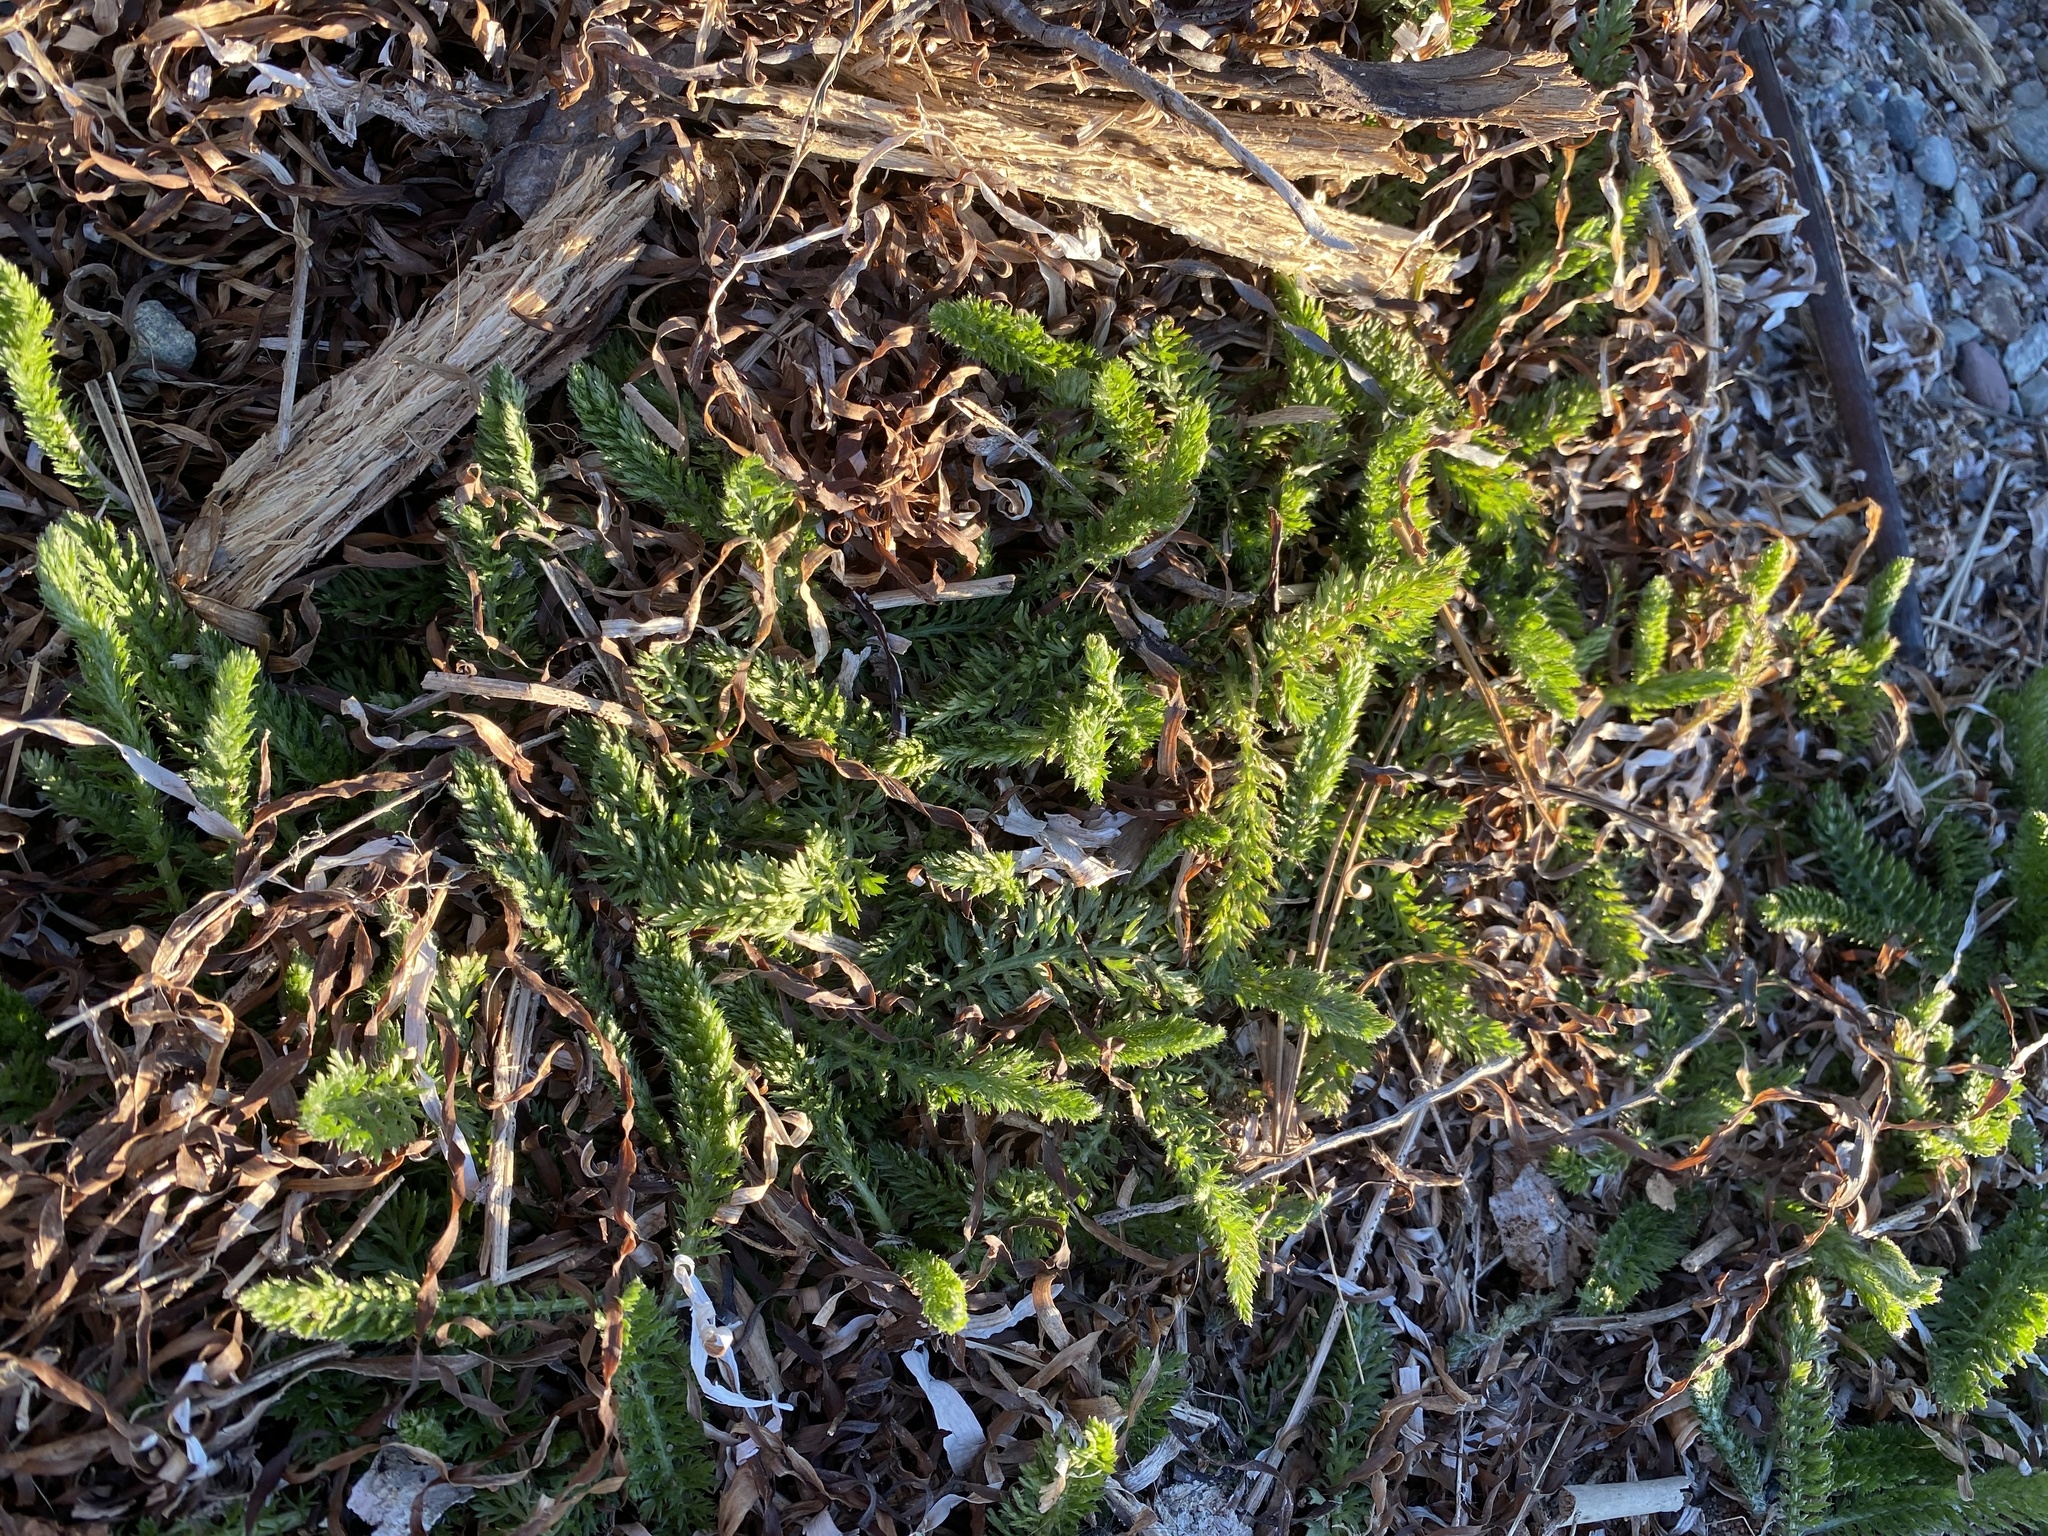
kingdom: Plantae
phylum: Tracheophyta
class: Magnoliopsida
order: Asterales
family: Asteraceae
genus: Achillea
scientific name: Achillea millefolium
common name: Yarrow
